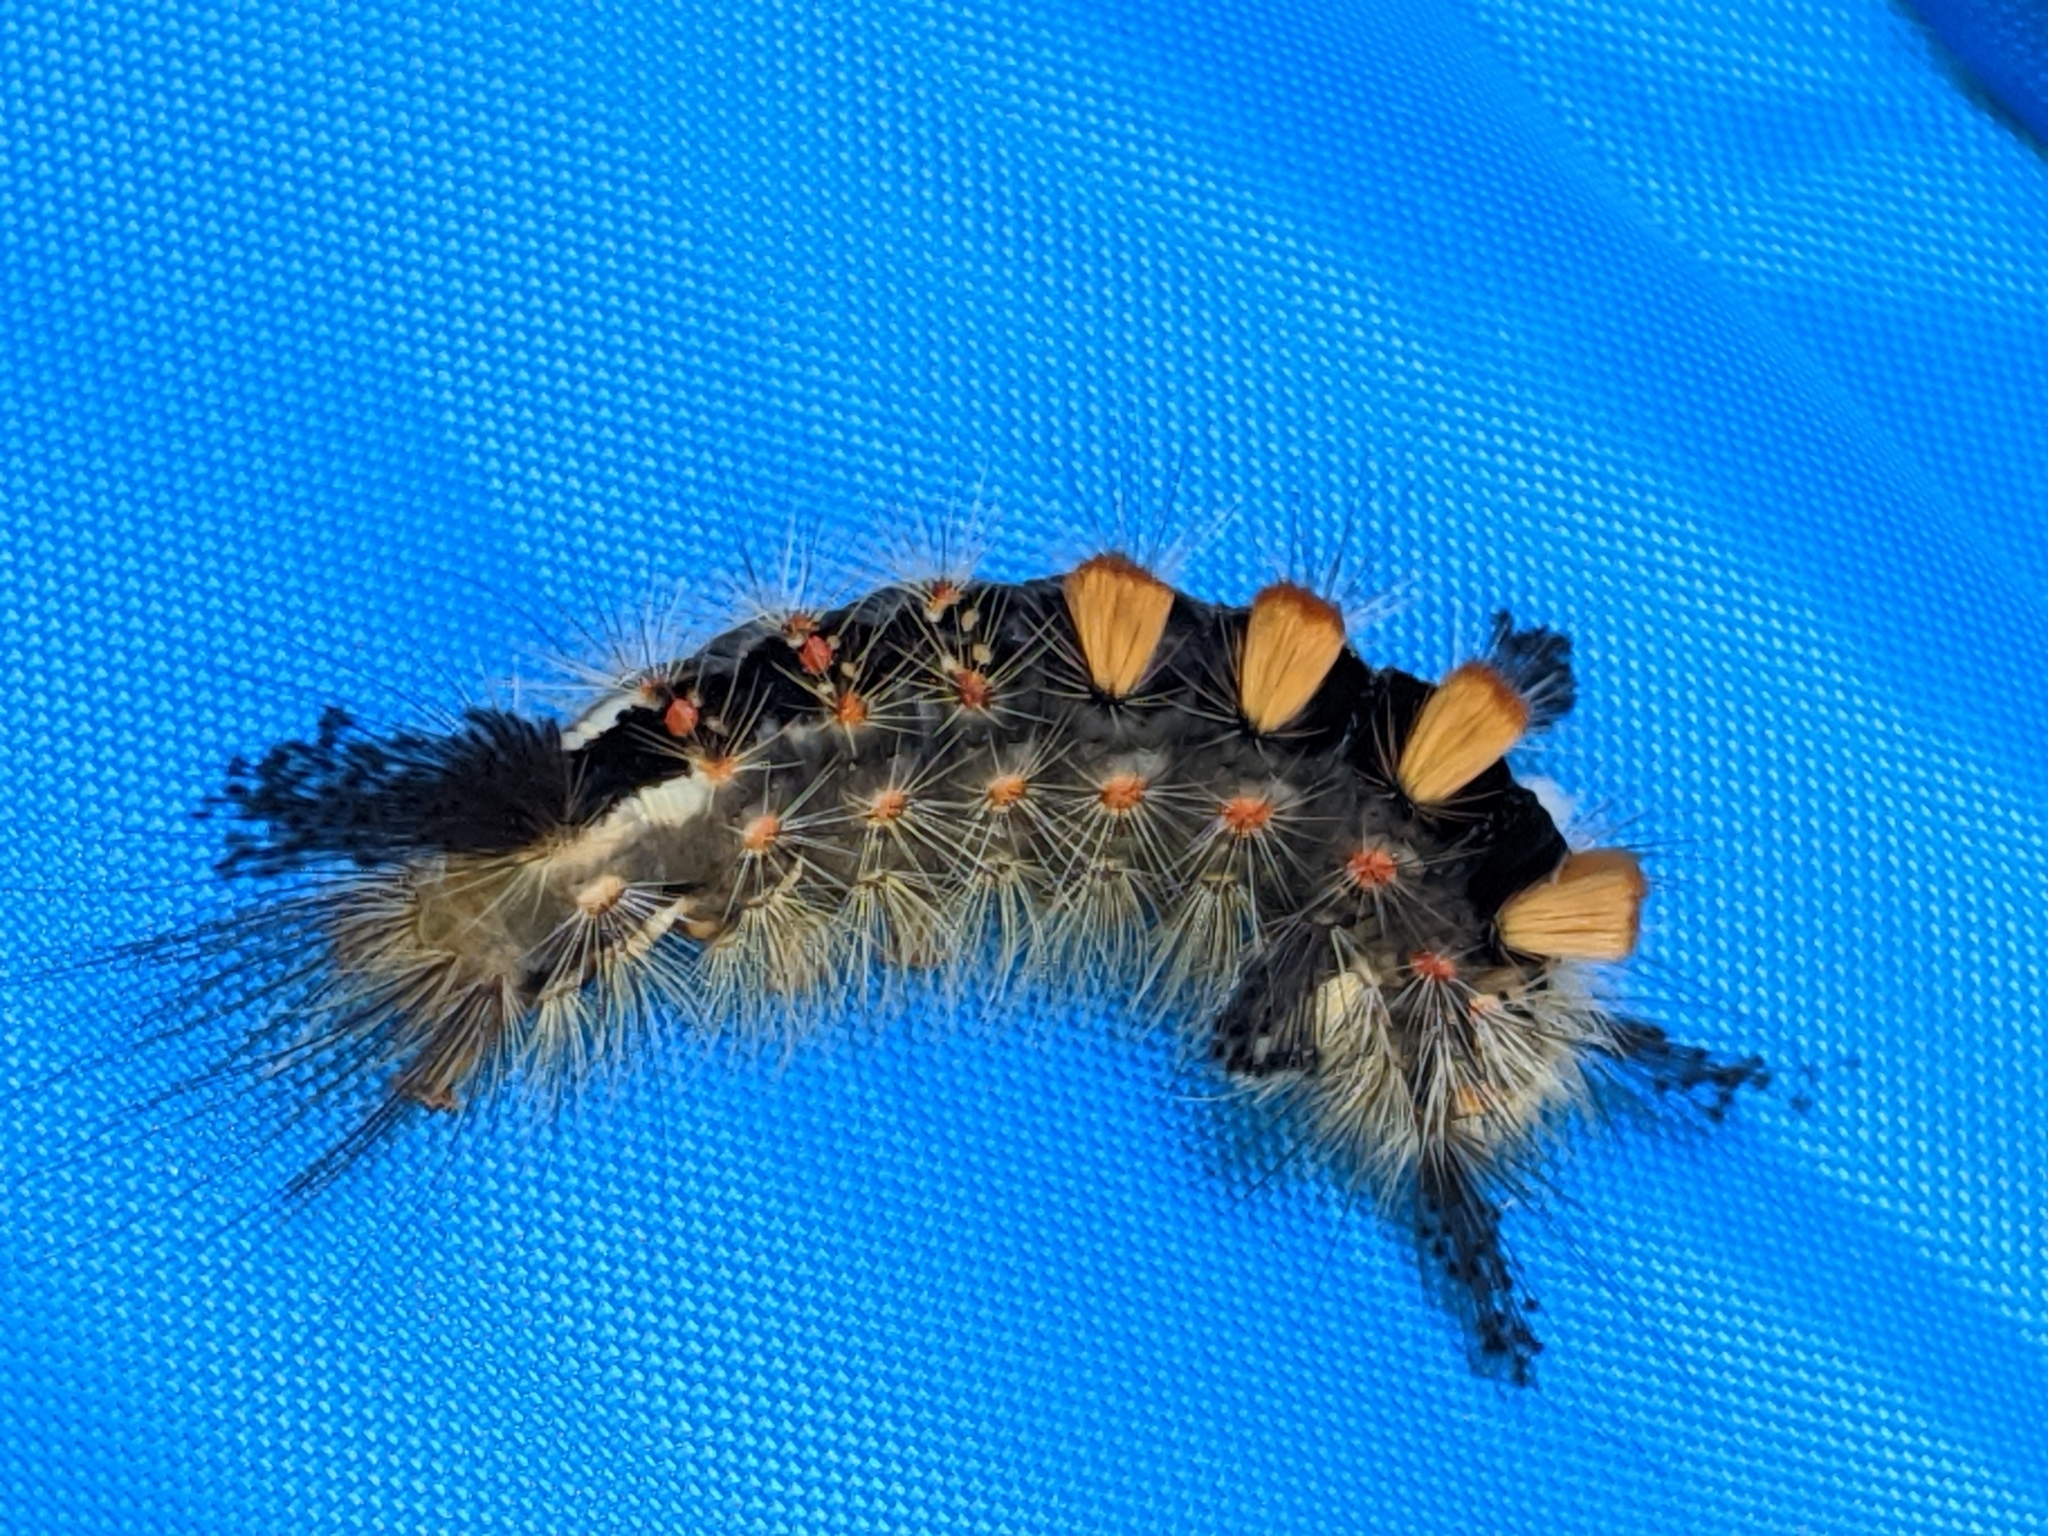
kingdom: Animalia
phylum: Arthropoda
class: Insecta
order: Lepidoptera
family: Erebidae
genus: Orgyia
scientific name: Orgyia antiqua
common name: Vapourer
